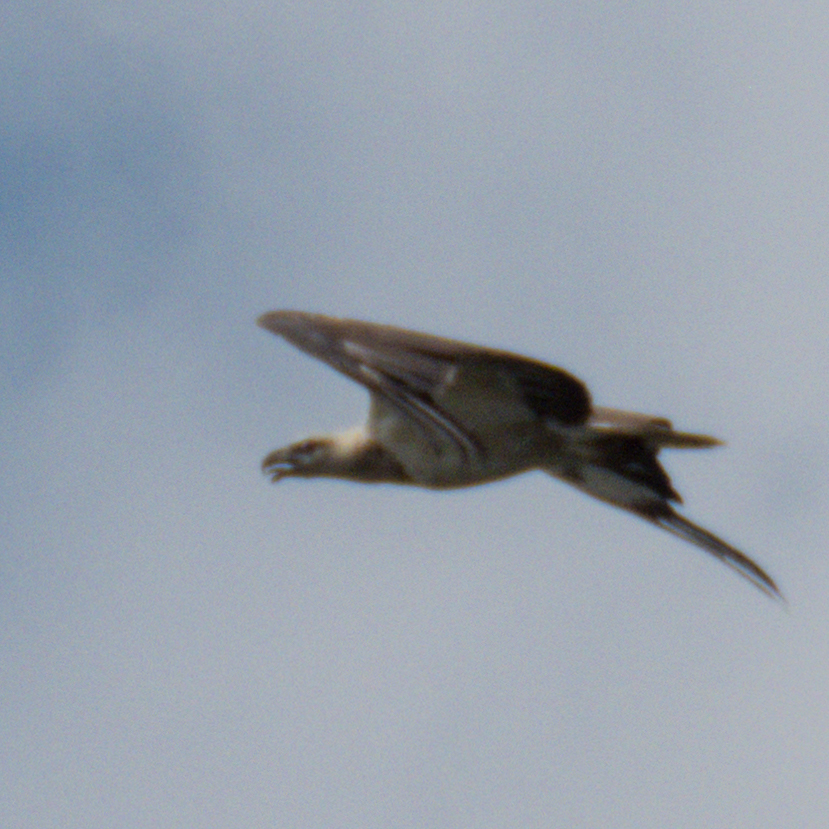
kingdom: Animalia
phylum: Chordata
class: Aves
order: Accipitriformes
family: Accipitridae
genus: Haliaeetus
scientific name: Haliaeetus leucogaster
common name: White-bellied sea eagle
